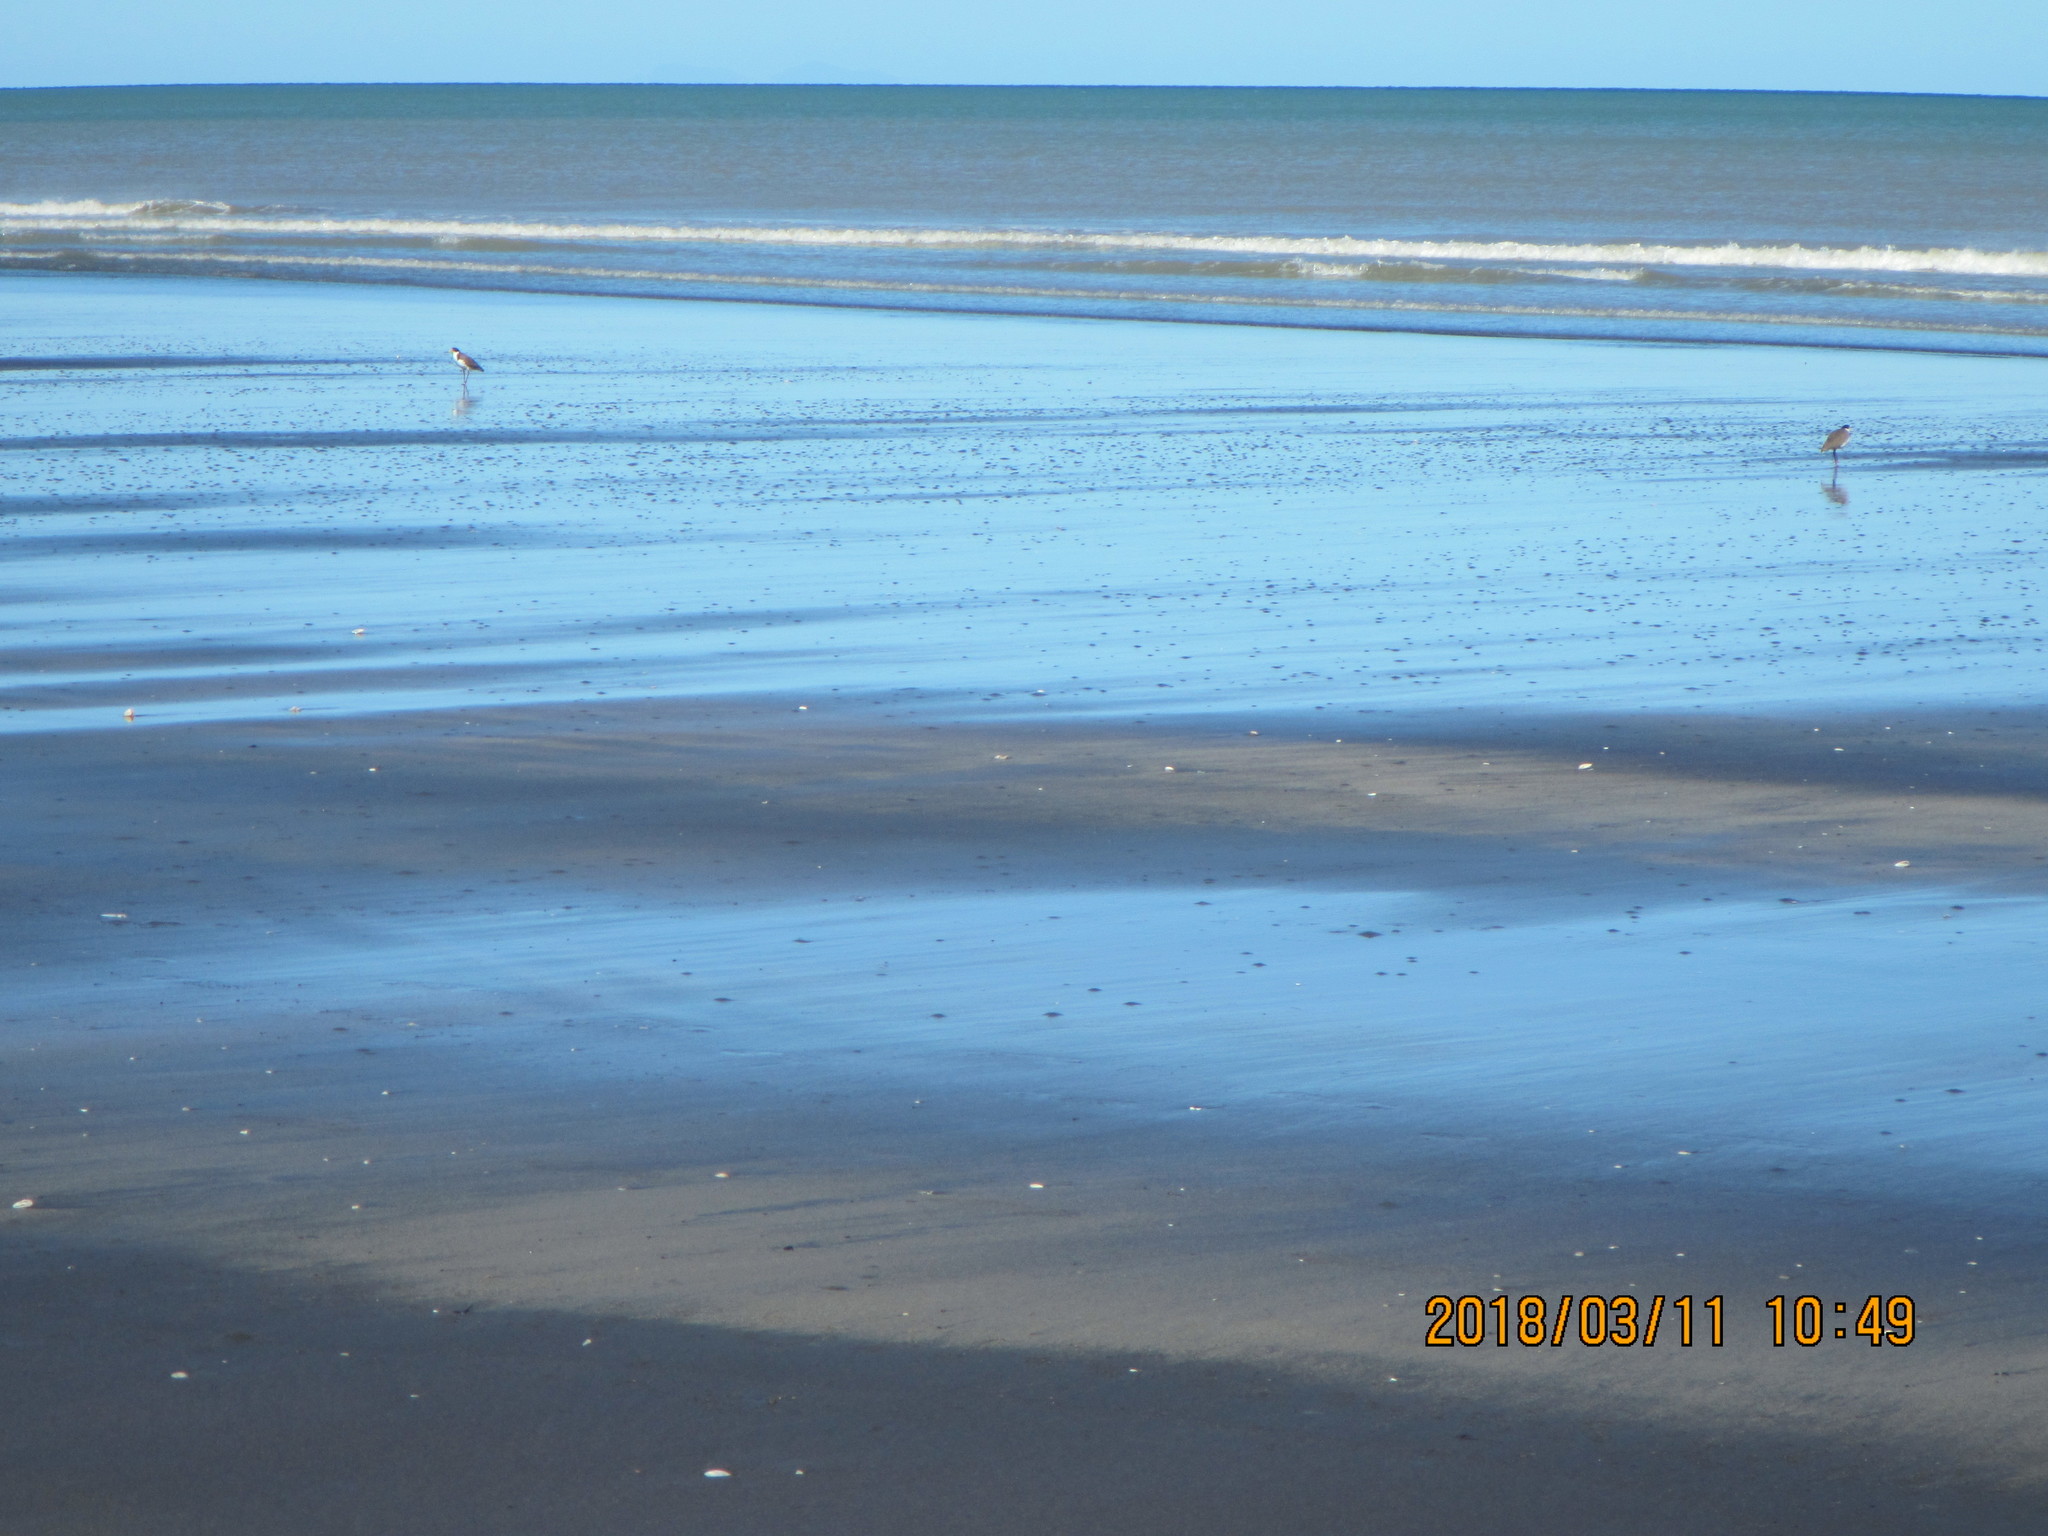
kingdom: Animalia
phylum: Chordata
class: Aves
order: Charadriiformes
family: Charadriidae
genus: Vanellus
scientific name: Vanellus miles
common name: Masked lapwing
